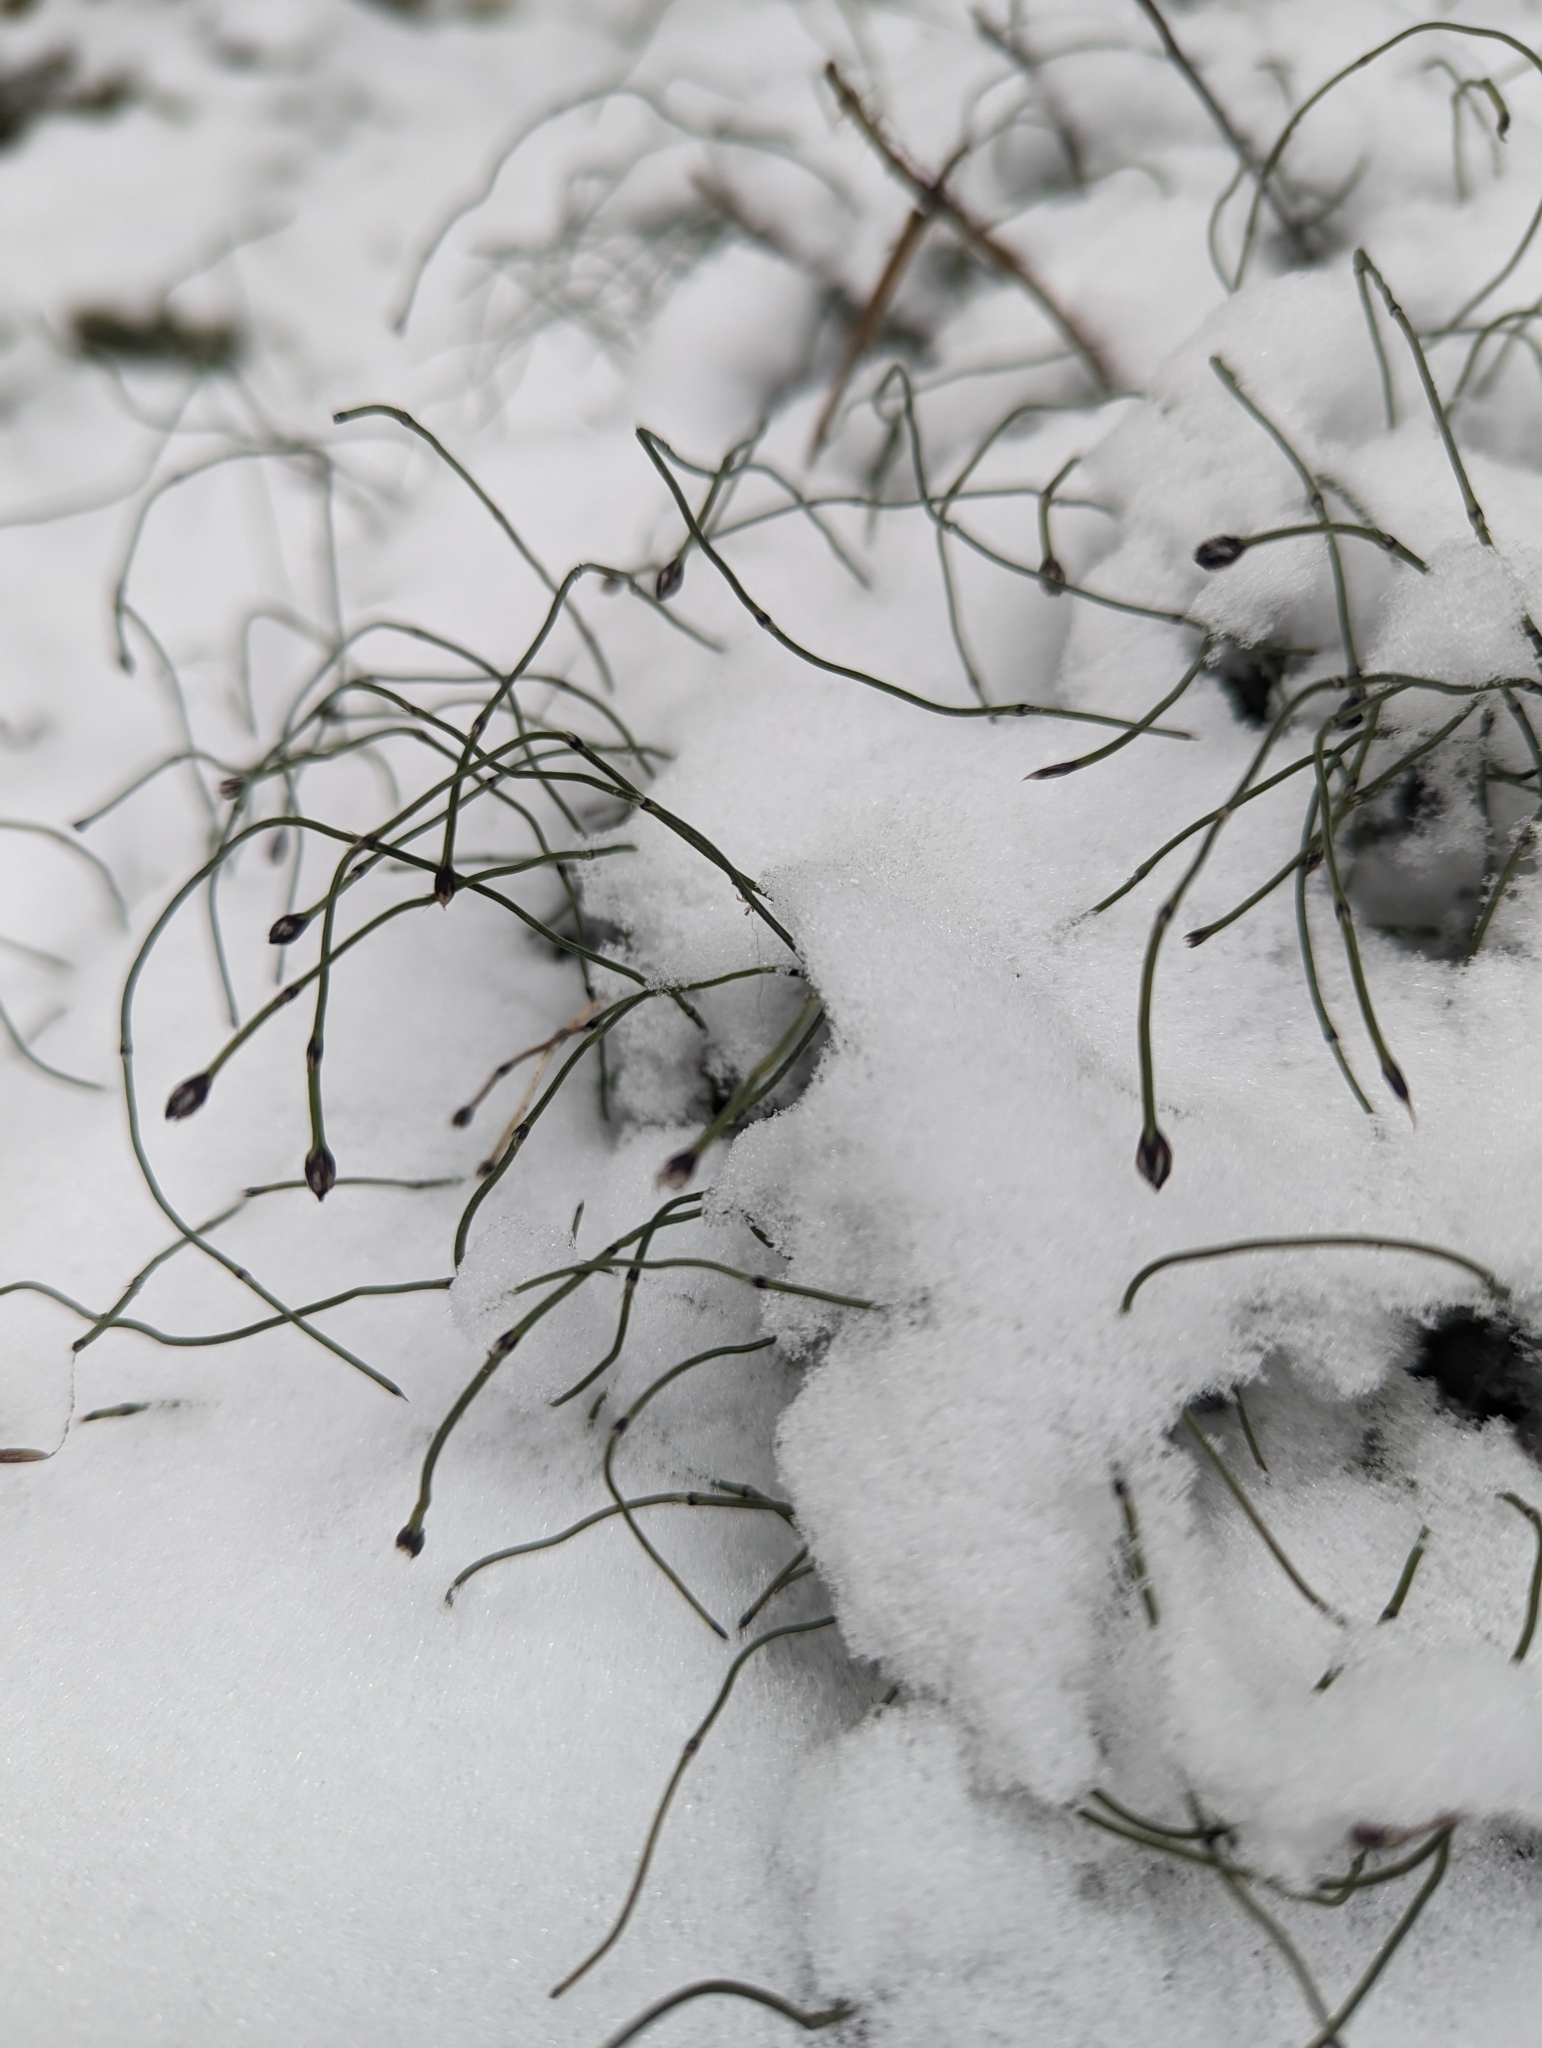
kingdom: Plantae
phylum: Tracheophyta
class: Polypodiopsida
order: Equisetales
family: Equisetaceae
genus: Equisetum
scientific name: Equisetum scirpoides
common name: Delicate horsetail
